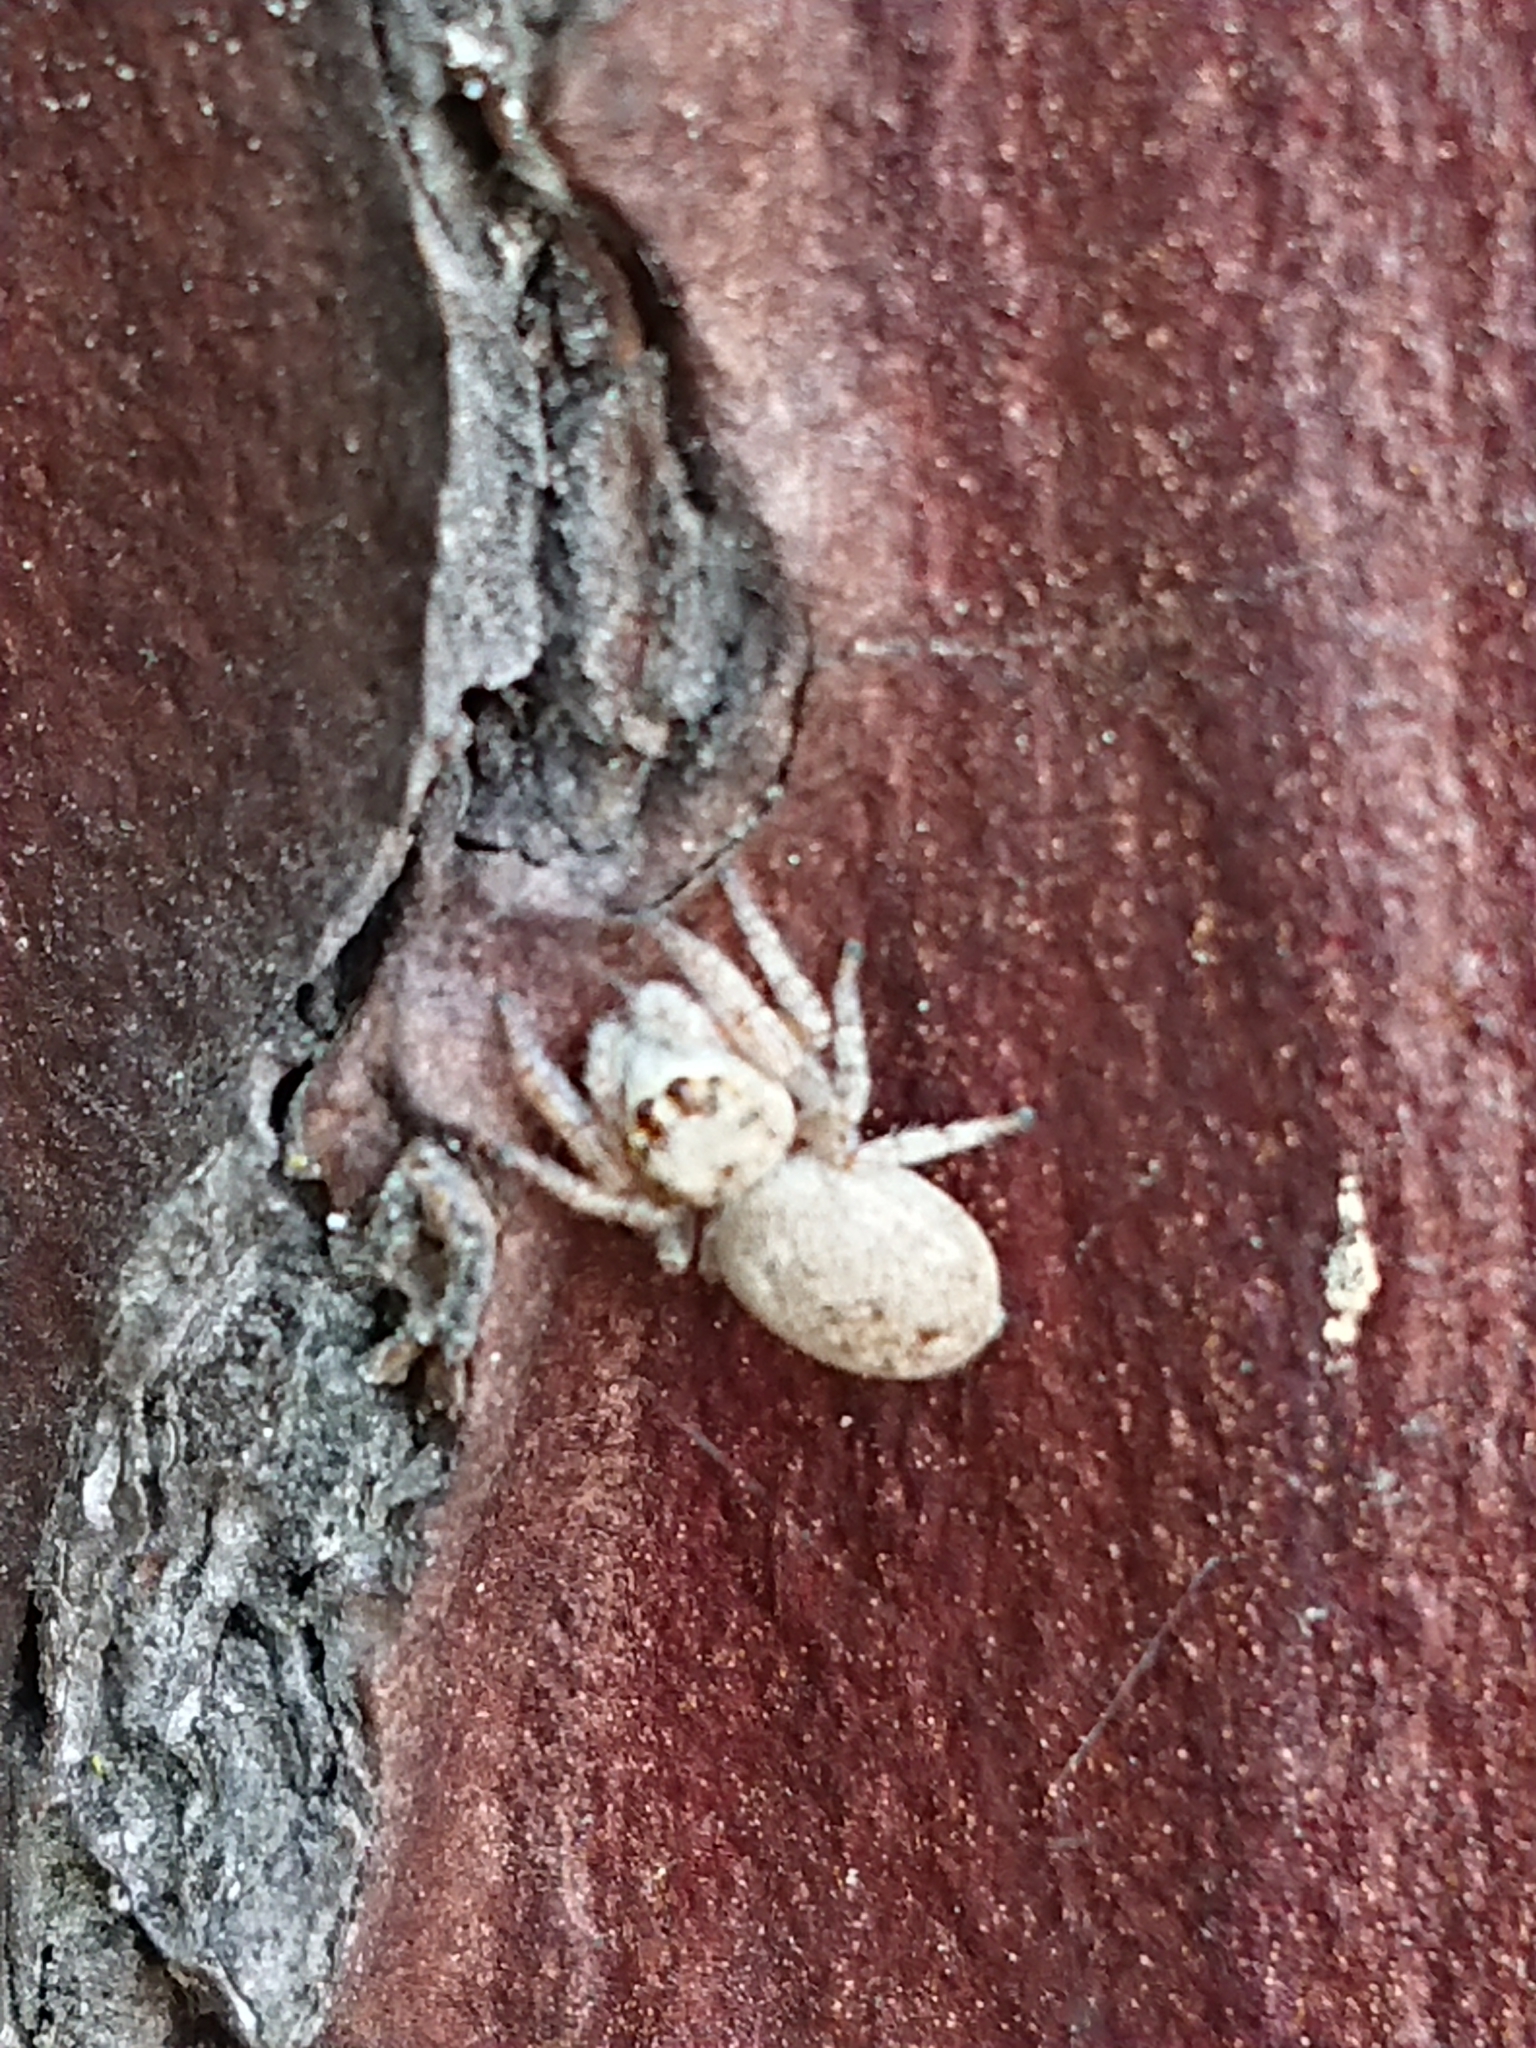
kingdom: Animalia
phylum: Arthropoda
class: Arachnida
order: Araneae
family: Salticidae
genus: Opisthoncus
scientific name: Opisthoncus polyphemus
